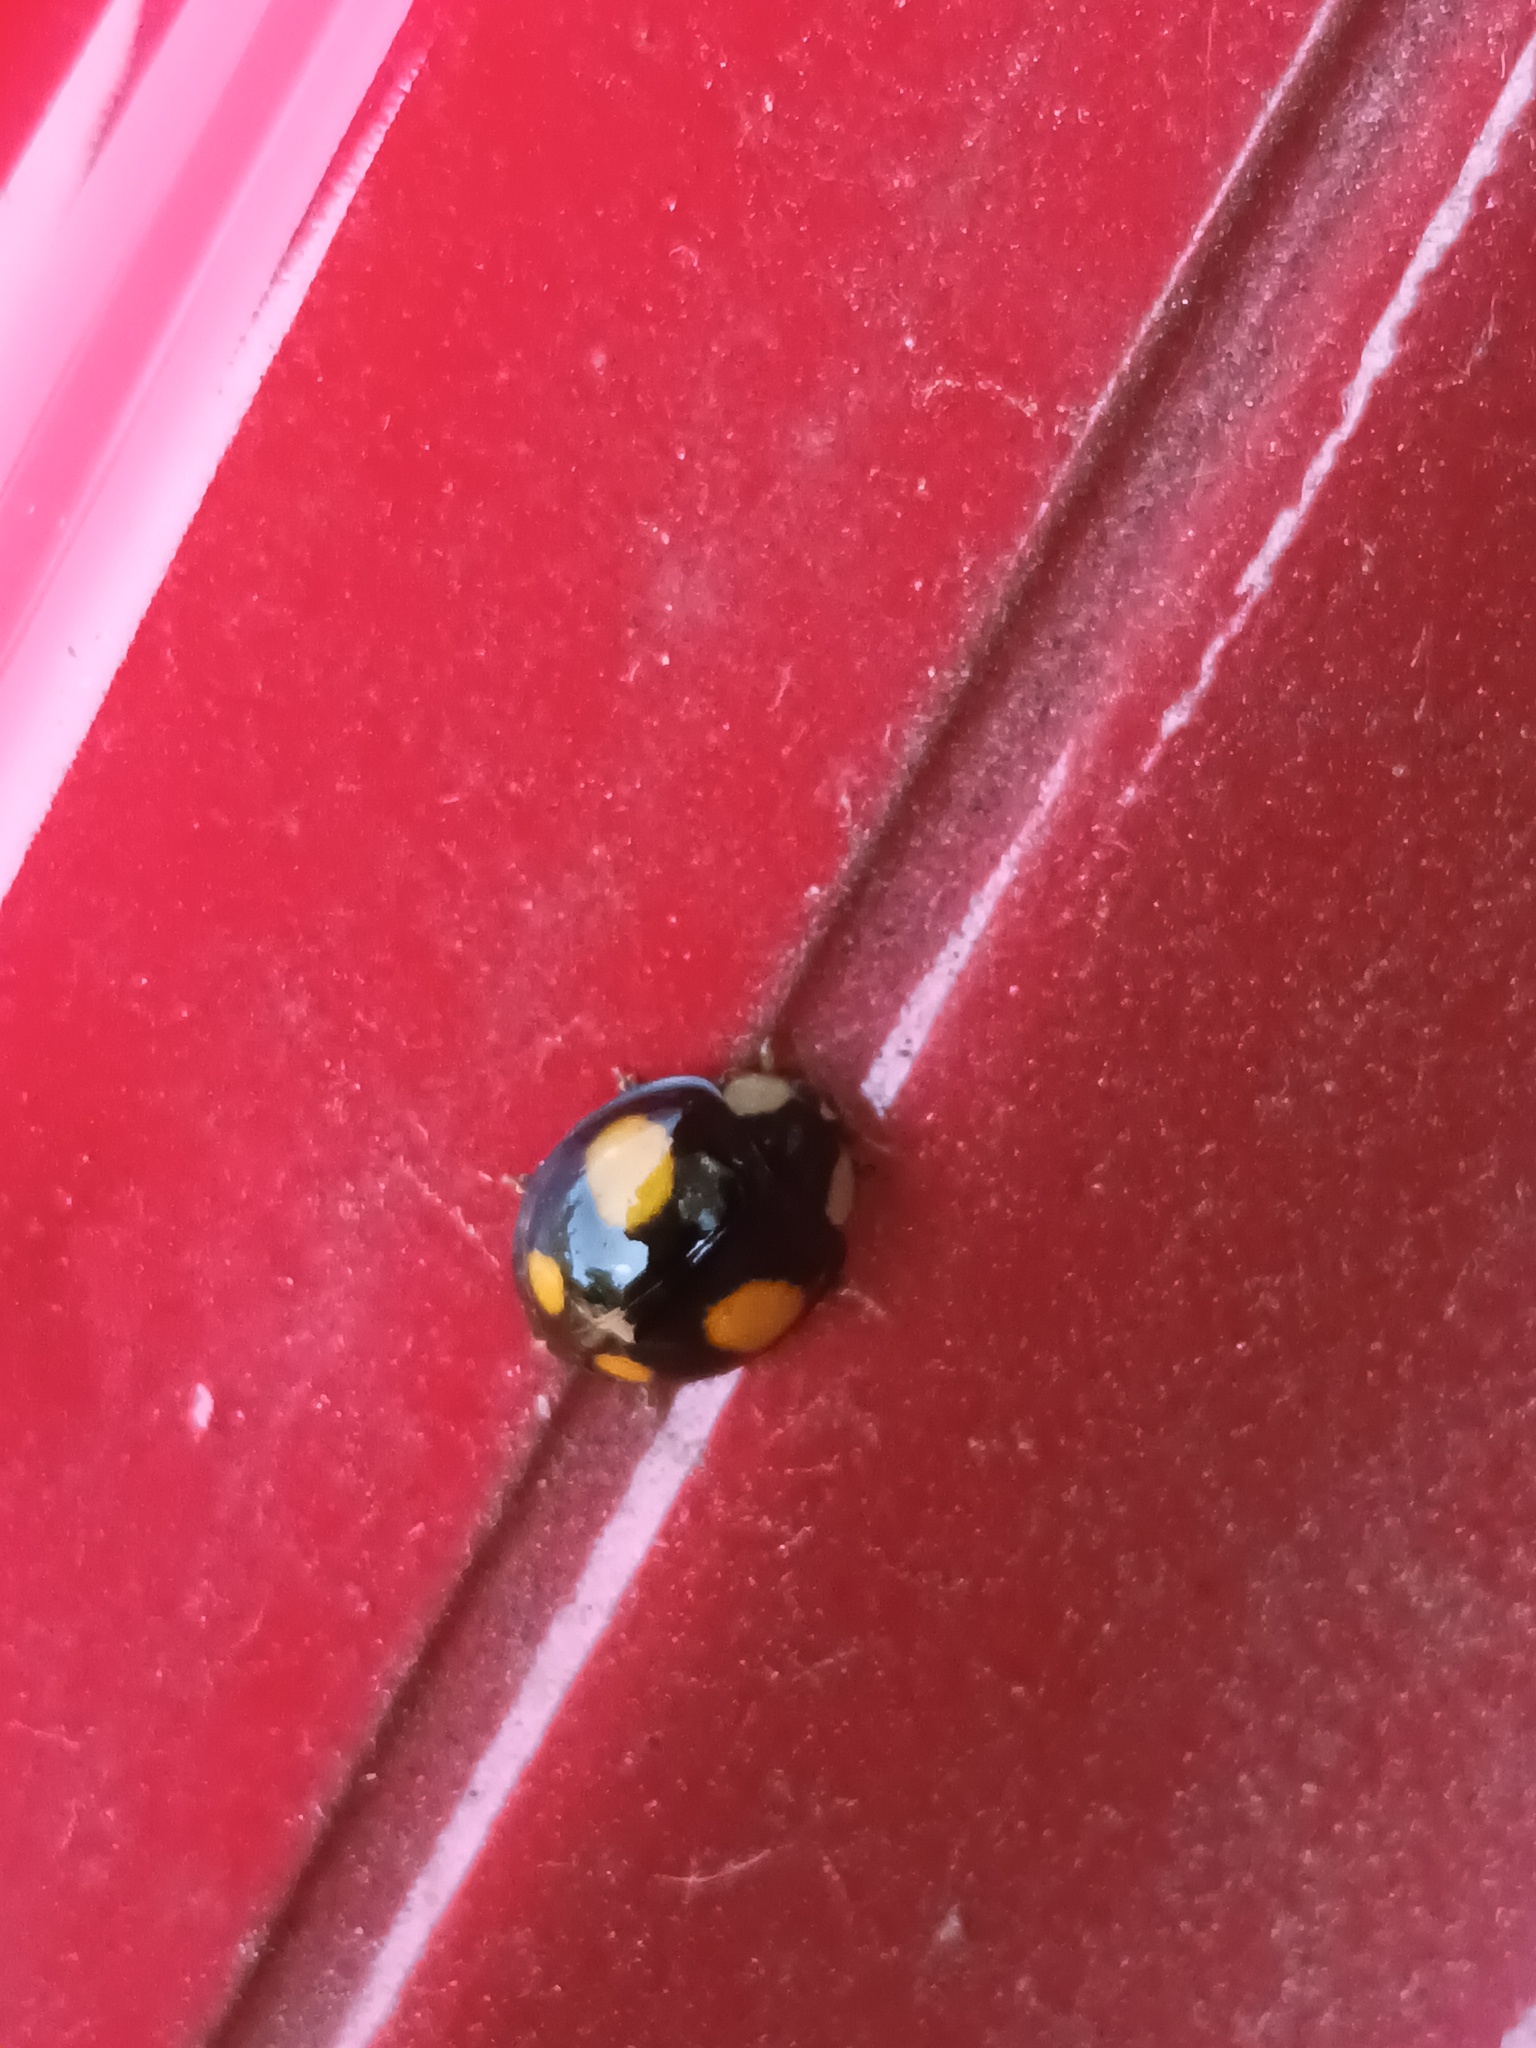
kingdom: Animalia
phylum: Arthropoda
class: Insecta
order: Coleoptera
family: Coccinellidae
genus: Harmonia
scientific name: Harmonia axyridis
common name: Harlequin ladybird
